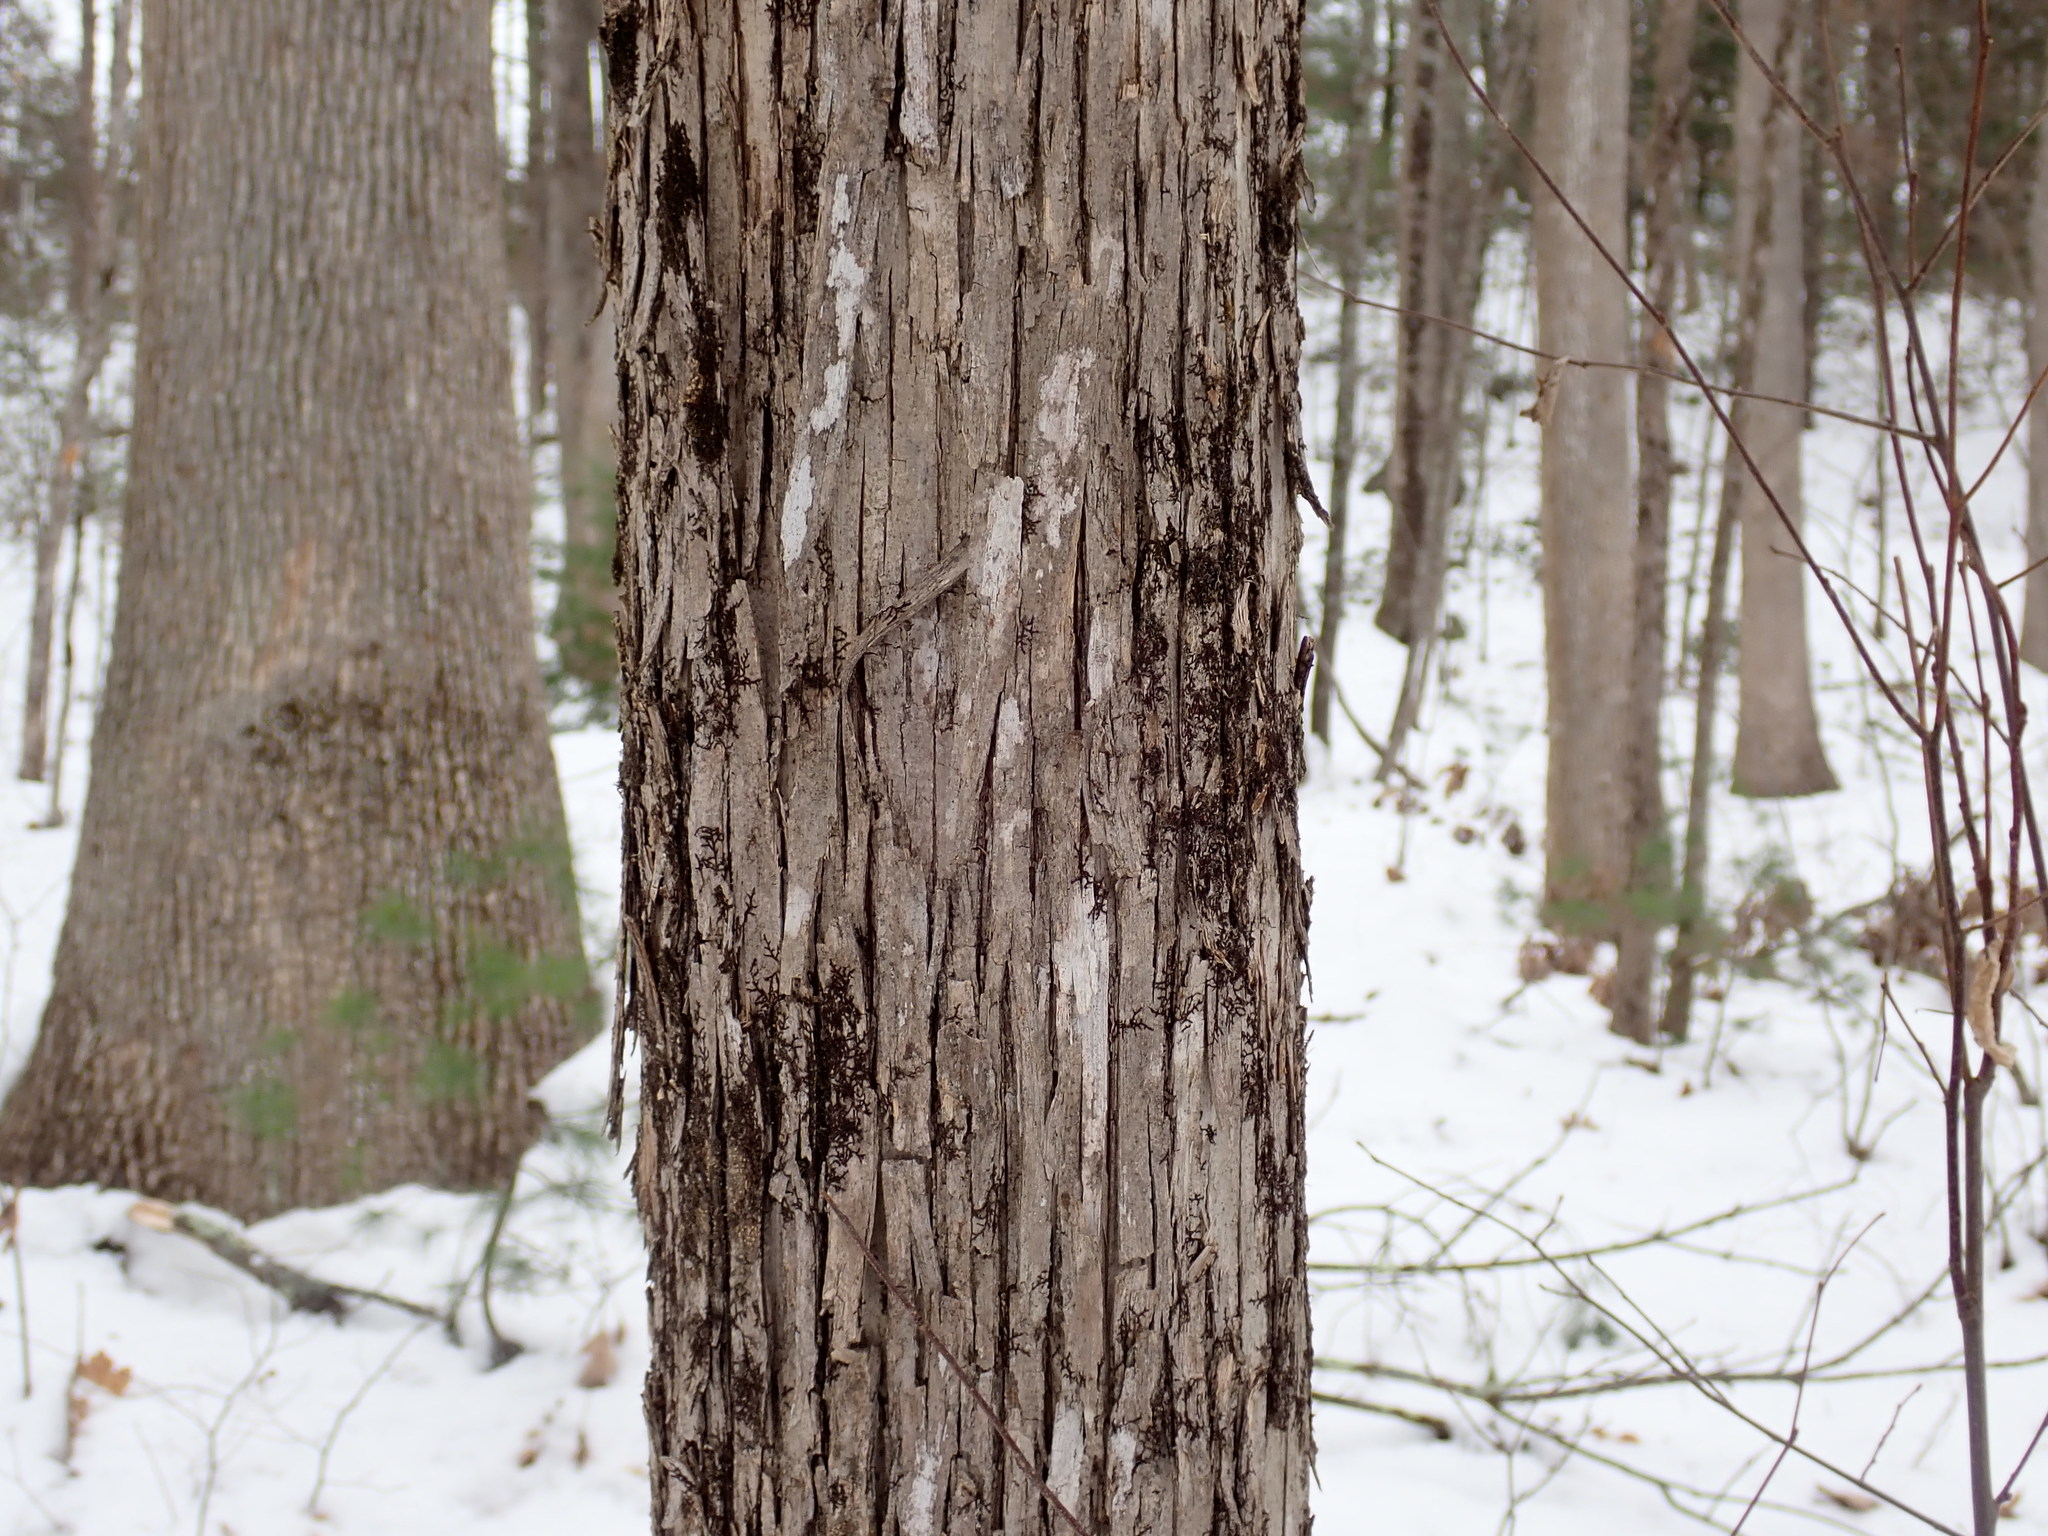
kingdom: Plantae
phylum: Tracheophyta
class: Magnoliopsida
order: Fagales
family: Betulaceae
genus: Ostrya
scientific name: Ostrya virginiana
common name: Ironwood
